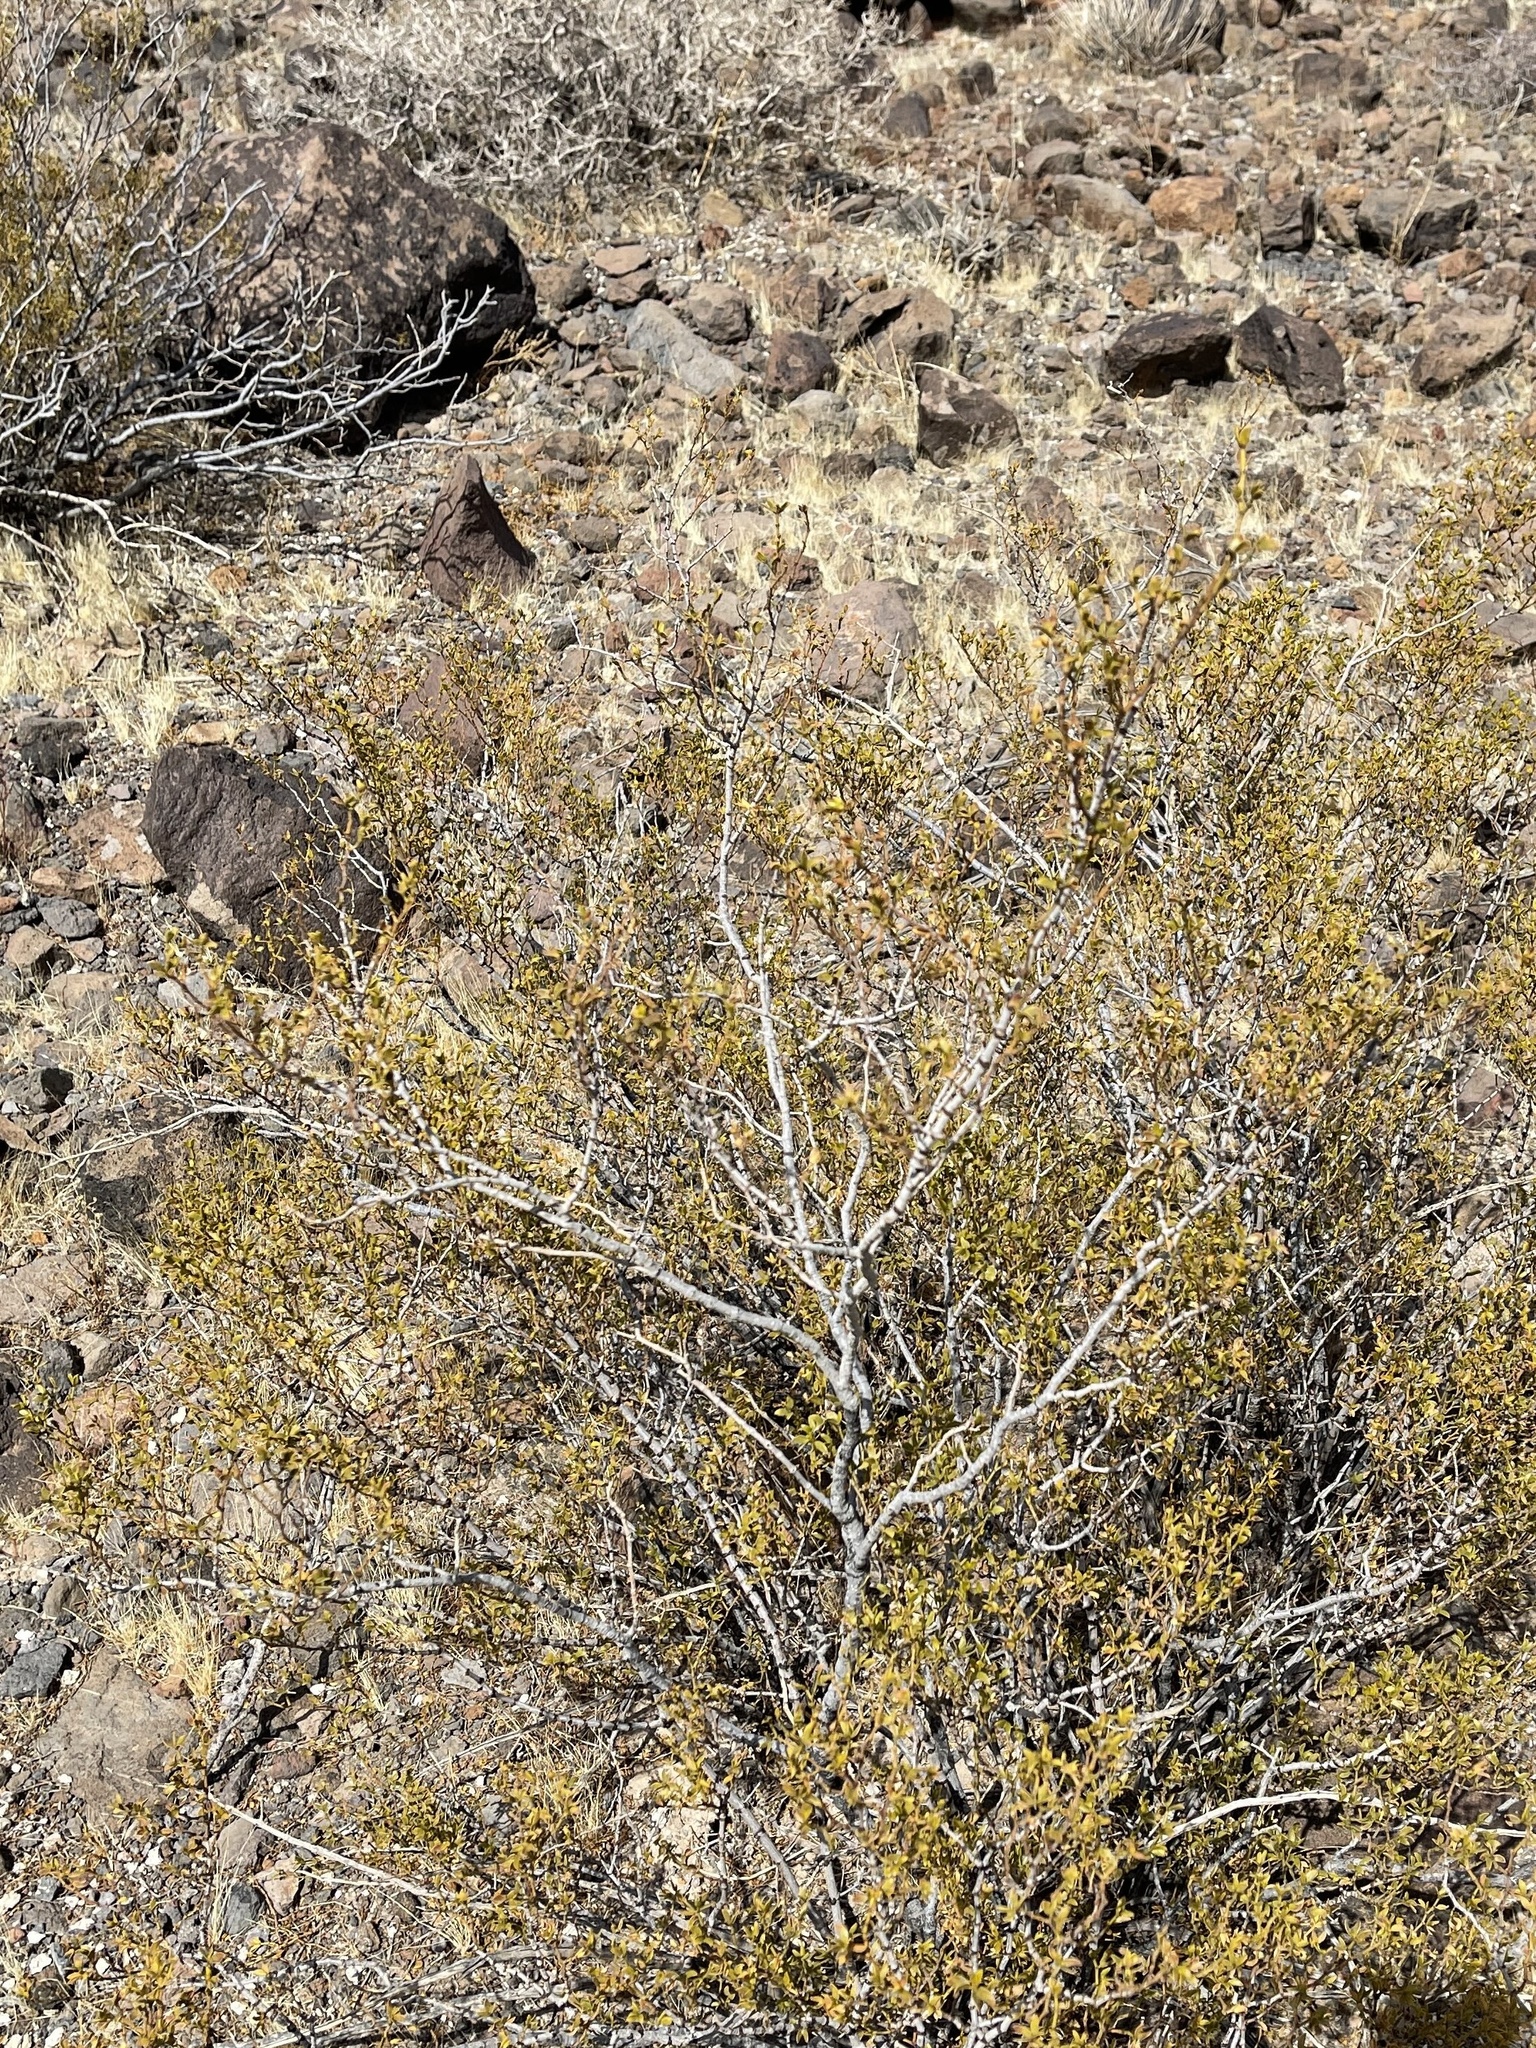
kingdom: Plantae
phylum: Tracheophyta
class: Magnoliopsida
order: Zygophyllales
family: Zygophyllaceae
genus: Larrea
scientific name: Larrea tridentata
